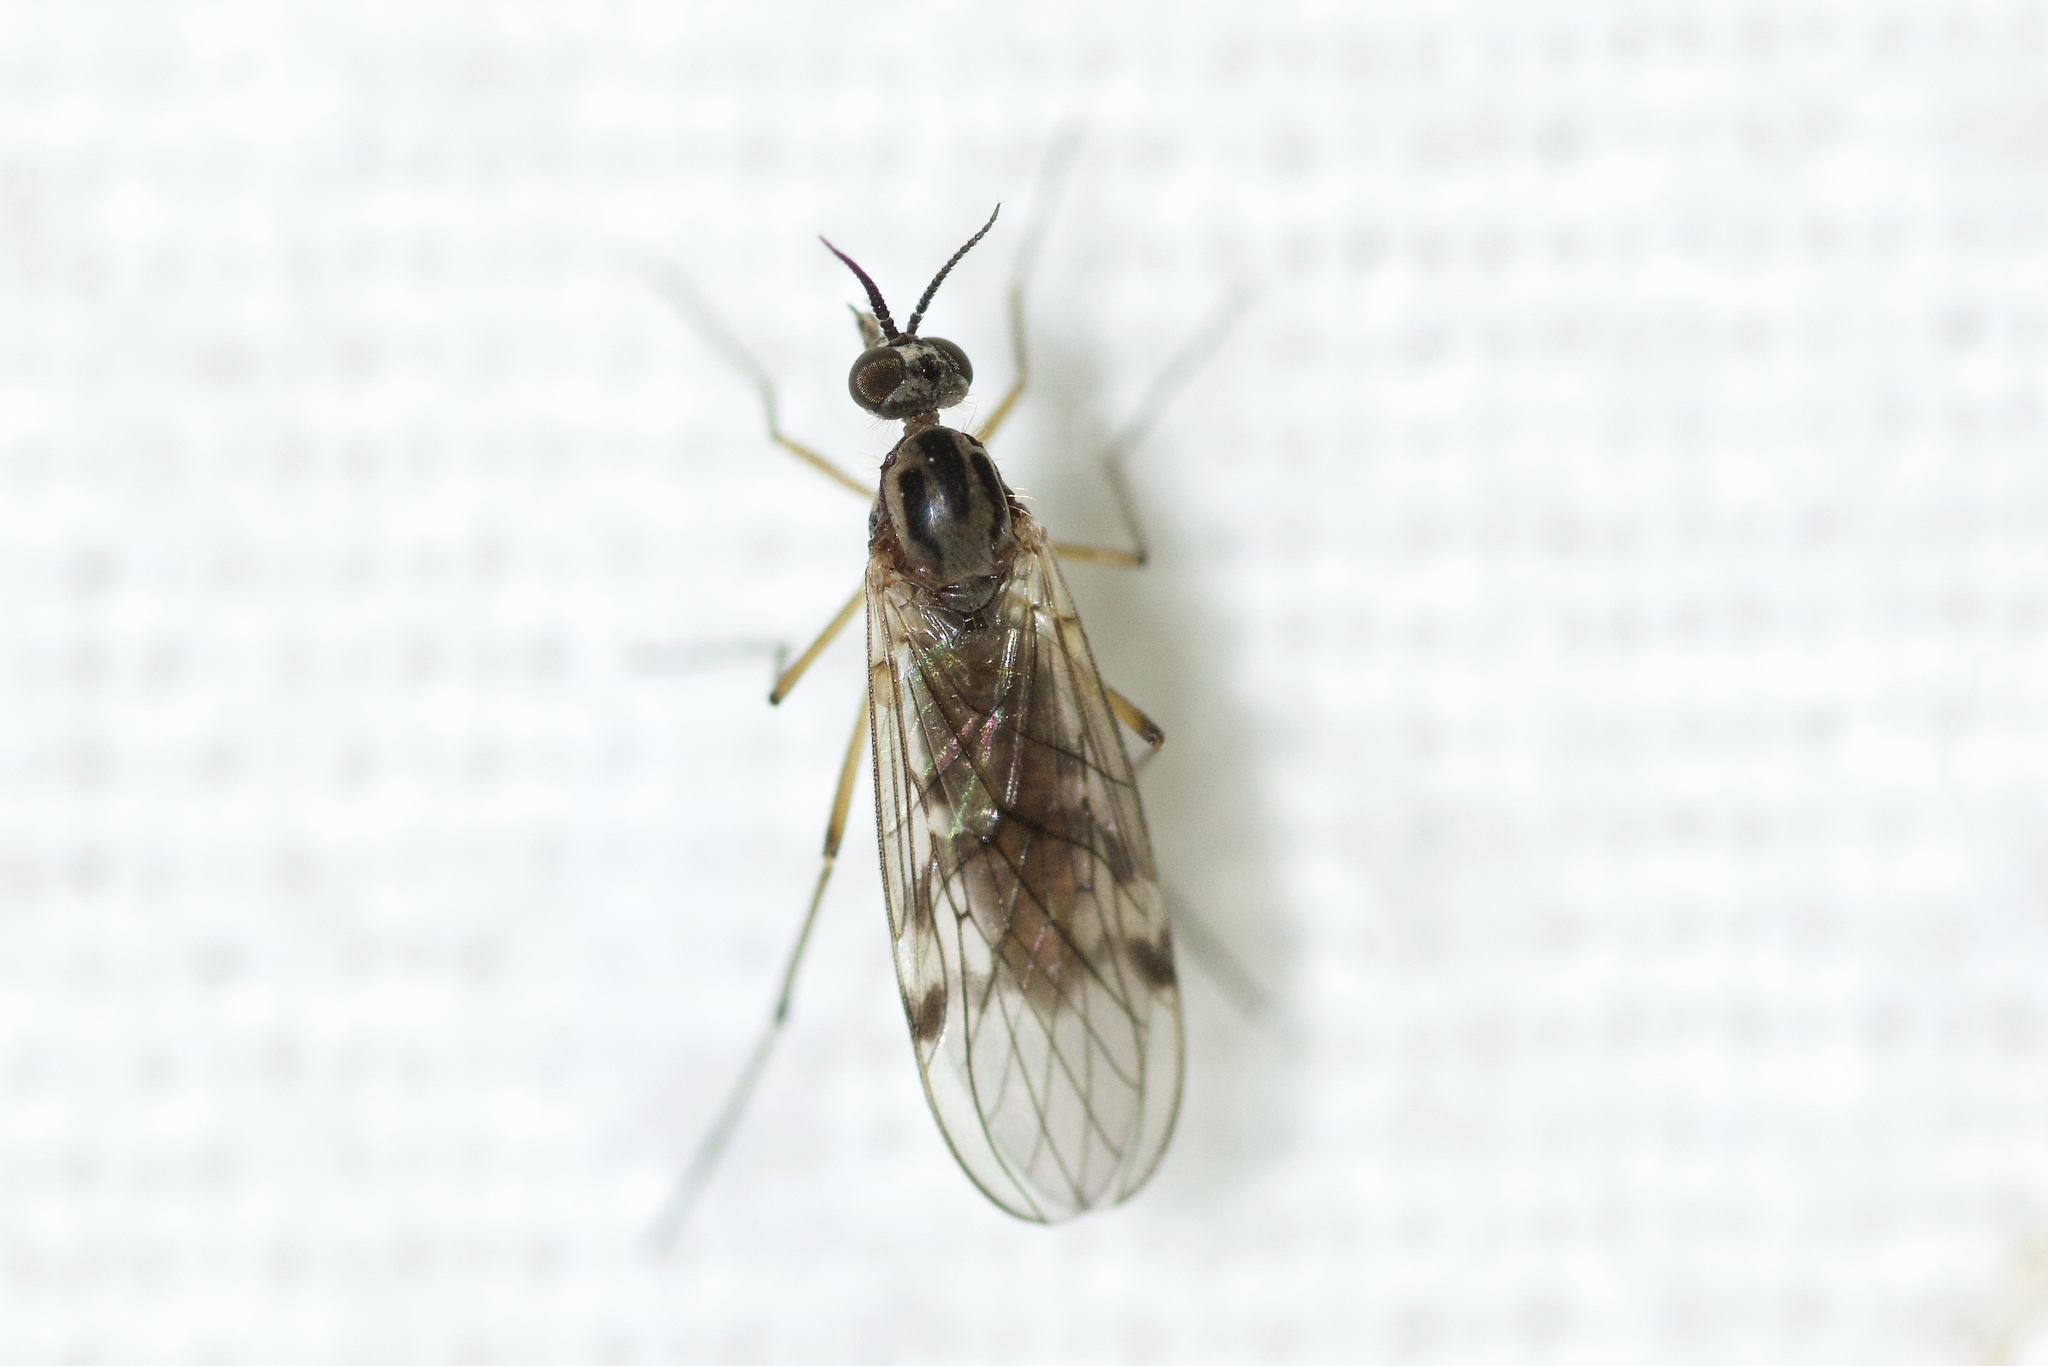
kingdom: Animalia
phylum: Arthropoda
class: Insecta
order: Diptera
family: Anisopodidae
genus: Sylvicola
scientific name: Sylvicola punctatus
